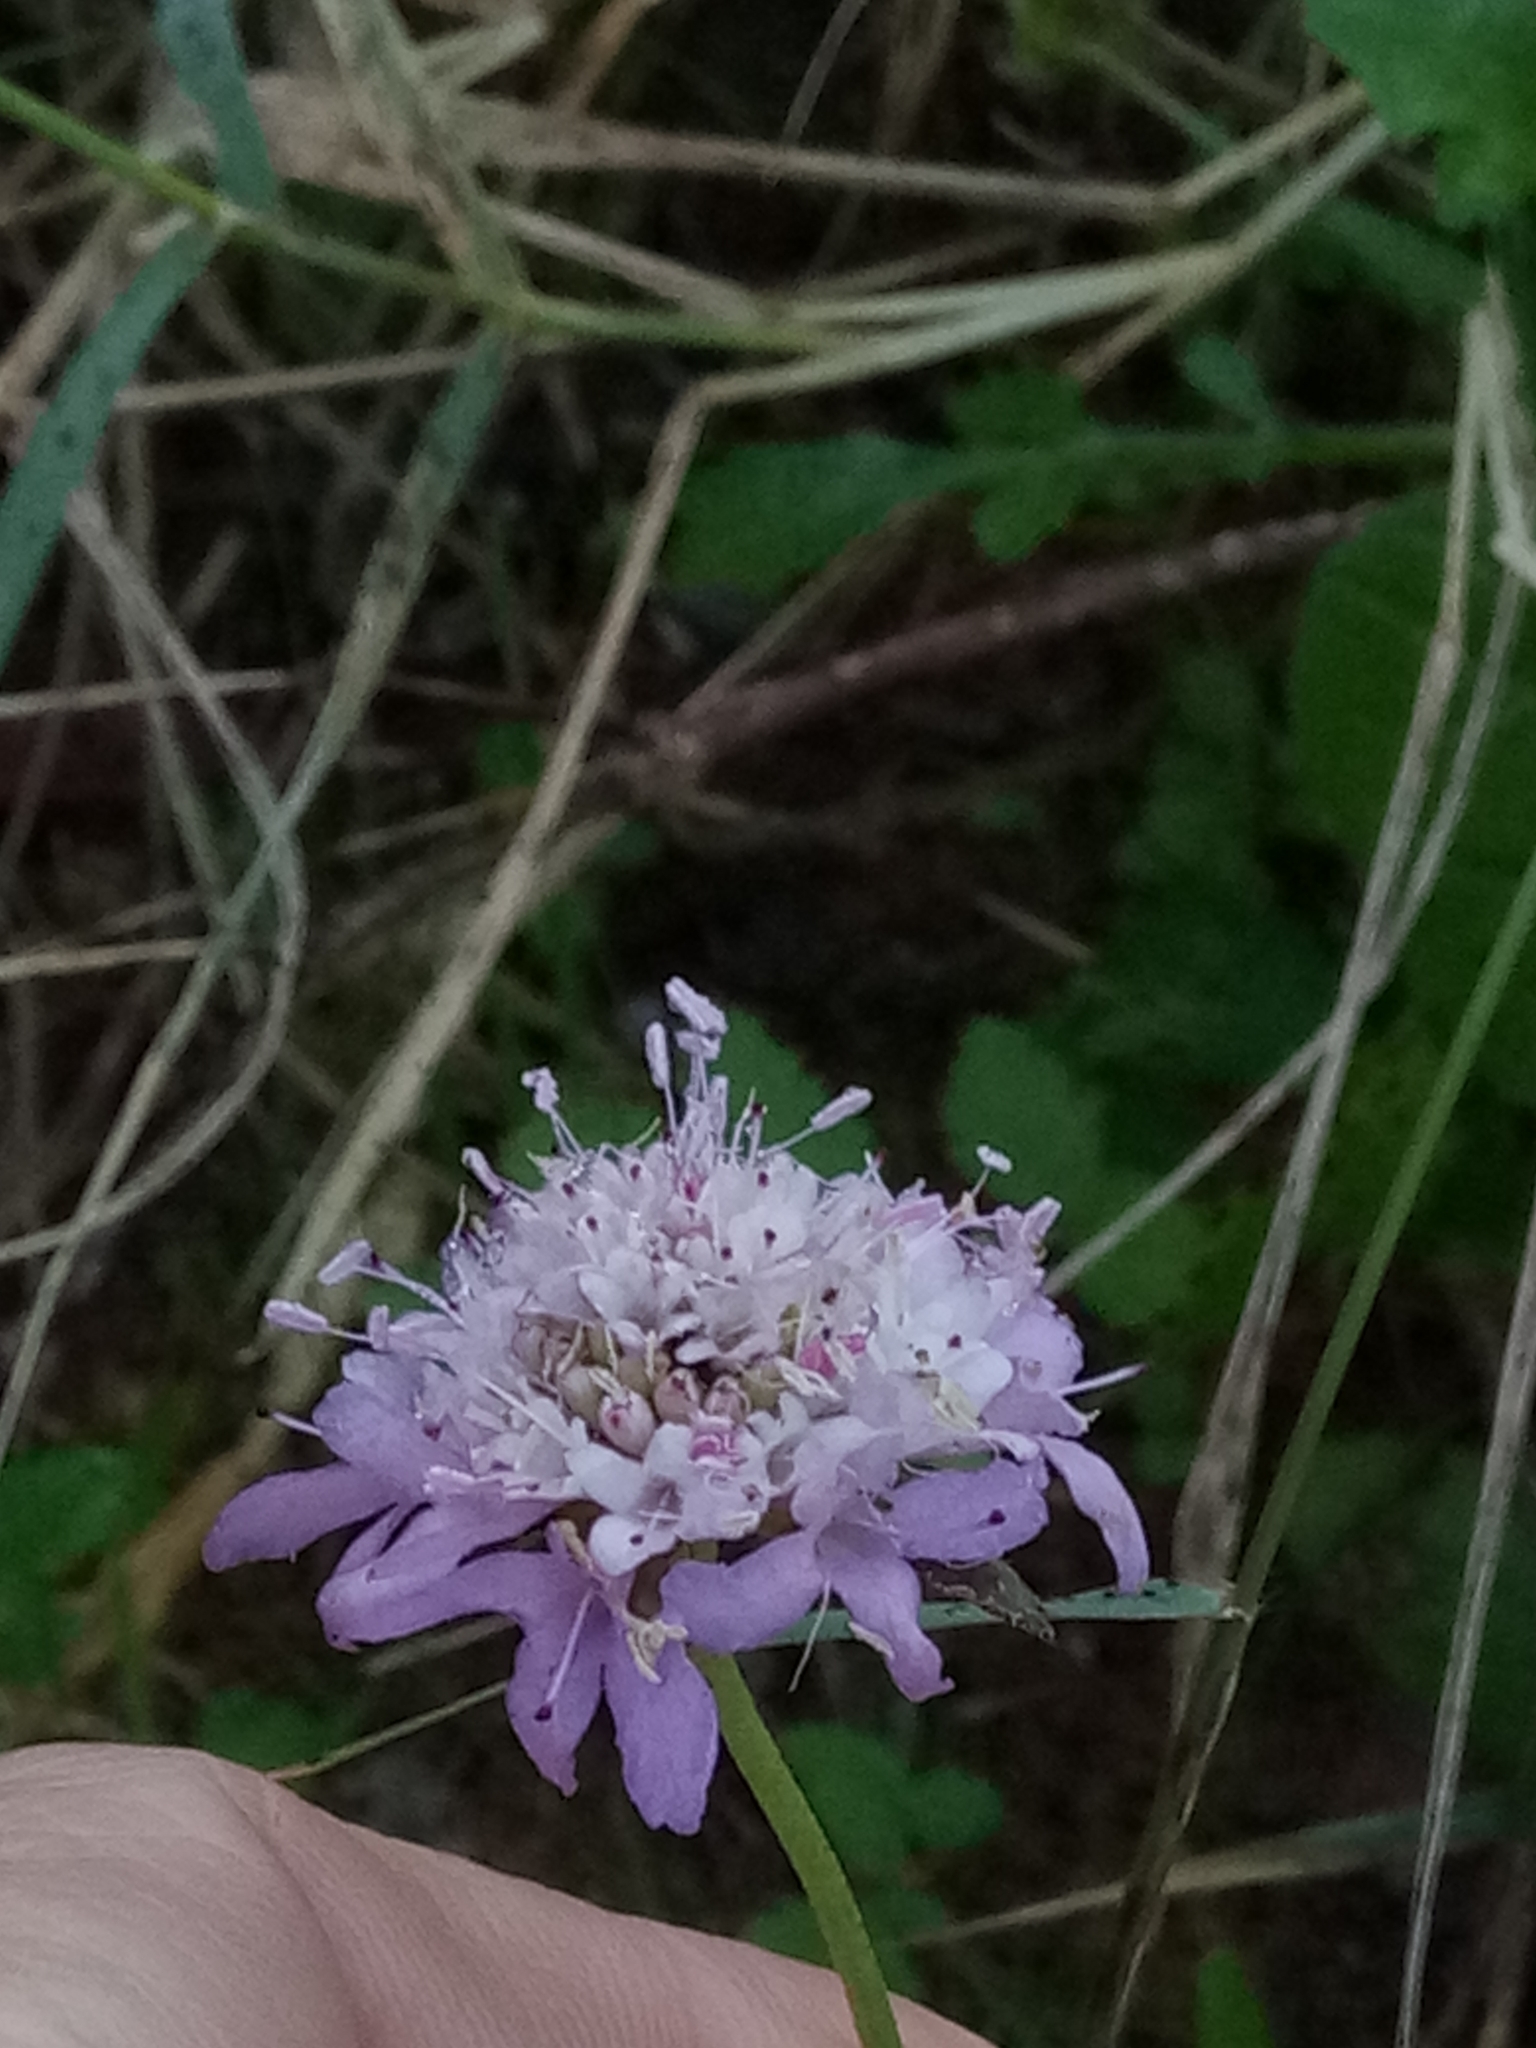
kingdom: Plantae
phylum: Tracheophyta
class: Magnoliopsida
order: Dipsacales
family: Caprifoliaceae
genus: Sixalix
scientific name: Sixalix atropurpurea
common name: Sweet scabious
